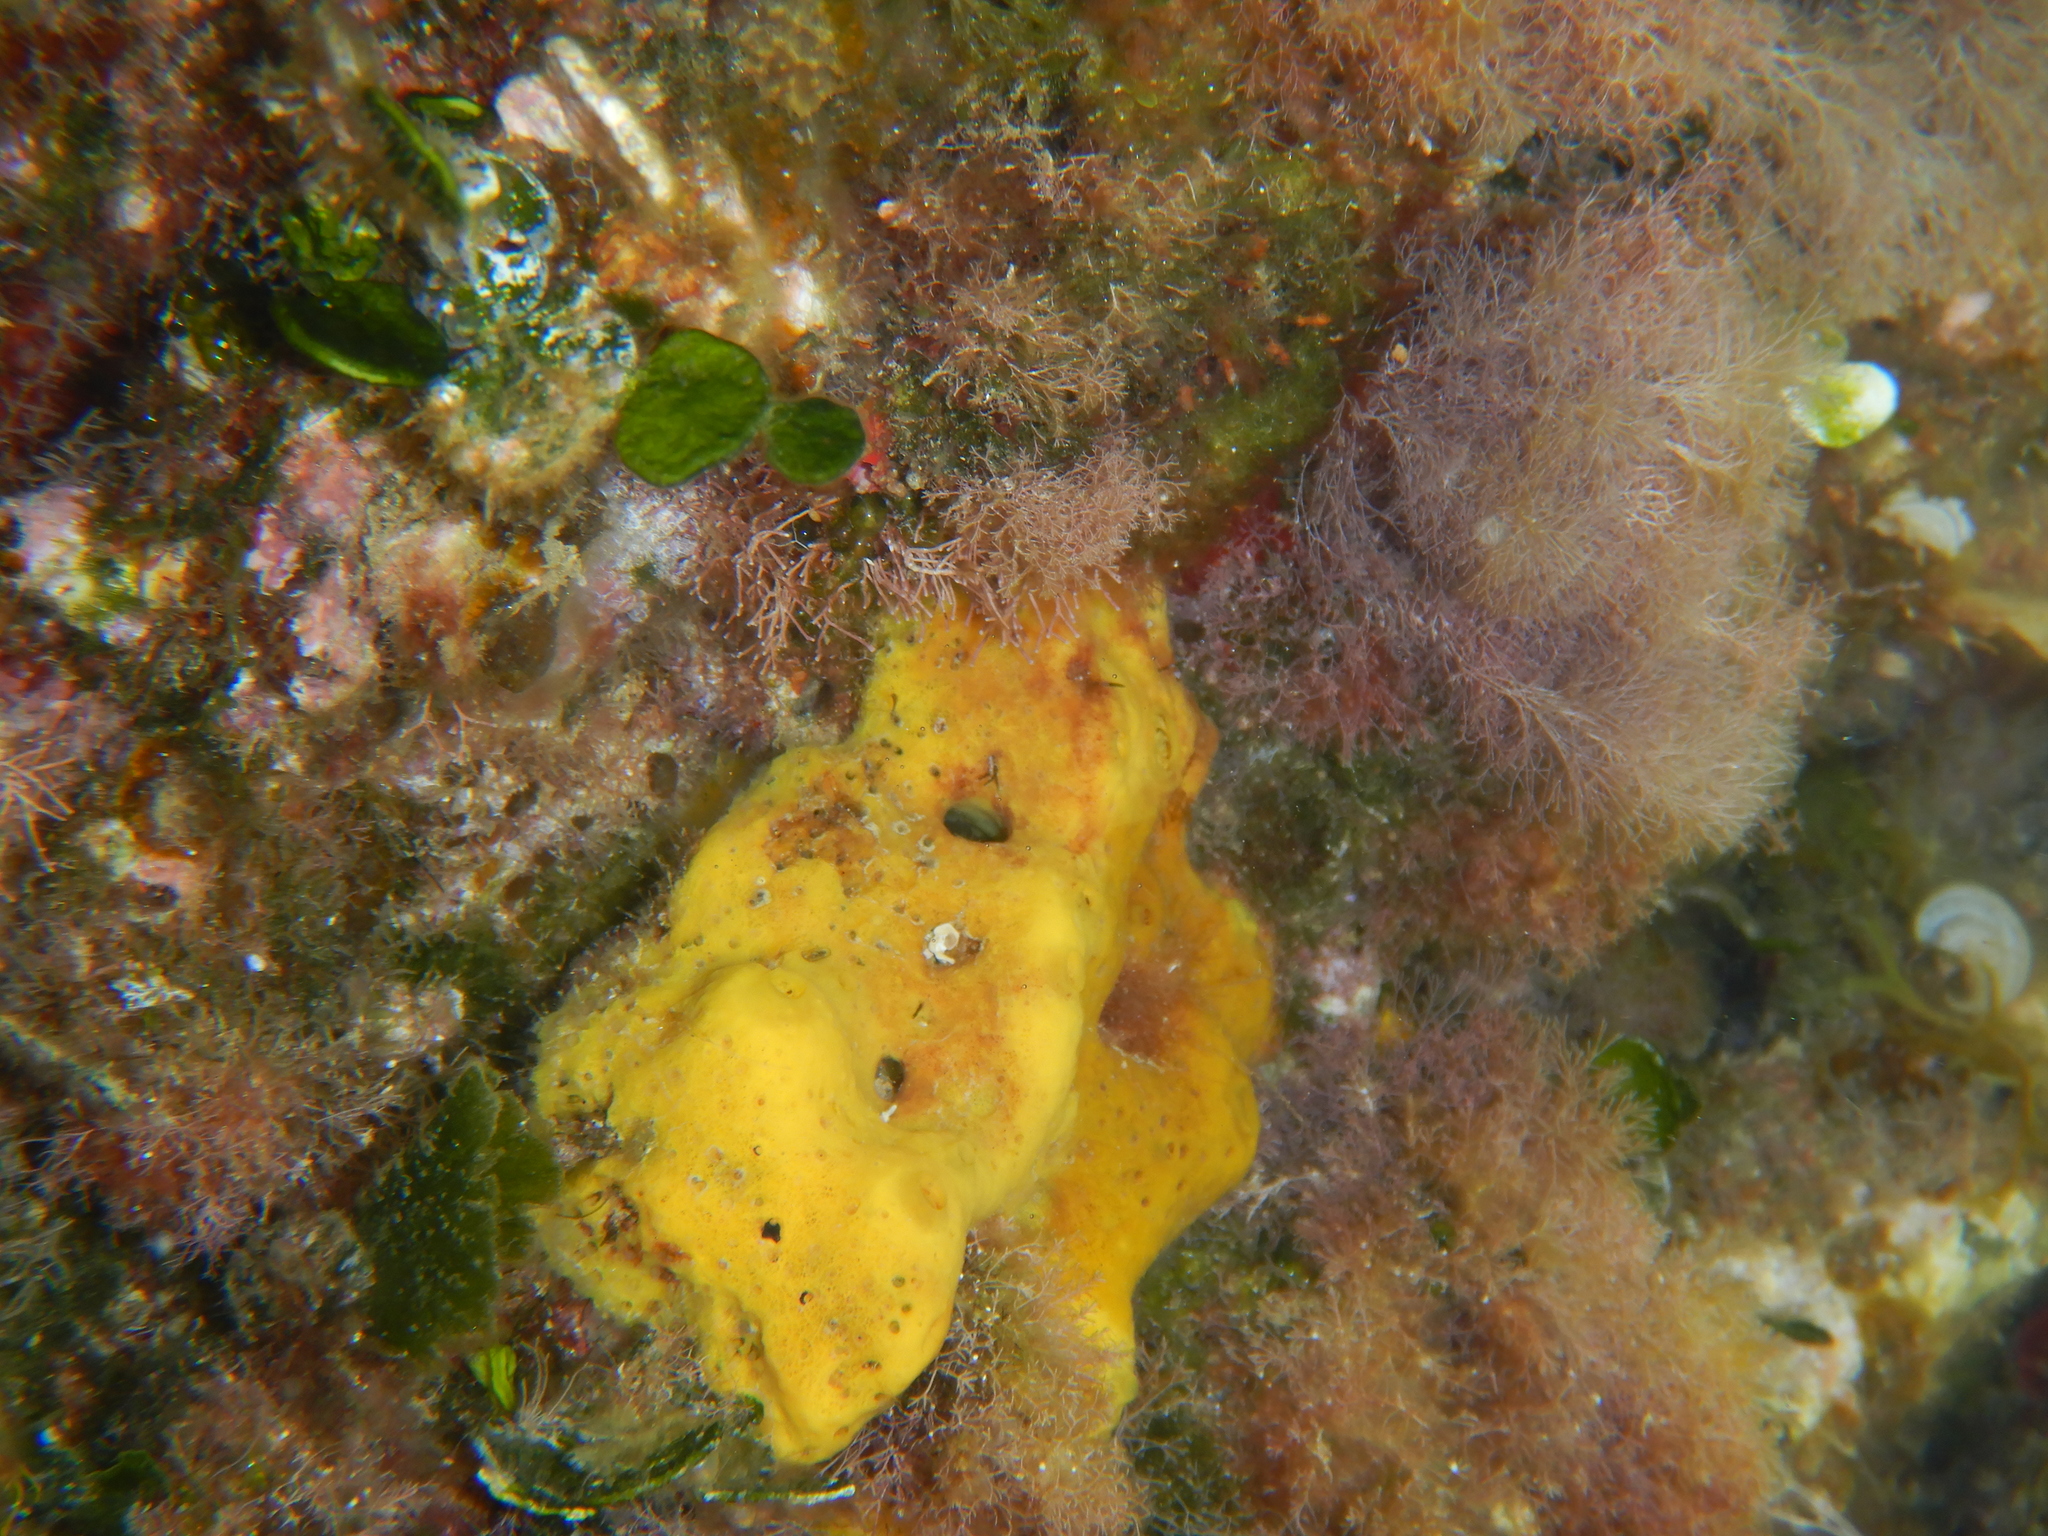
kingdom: Animalia
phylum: Porifera
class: Demospongiae
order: Agelasida
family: Agelasidae
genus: Agelas
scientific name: Agelas oroides
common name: Maltese sponge
